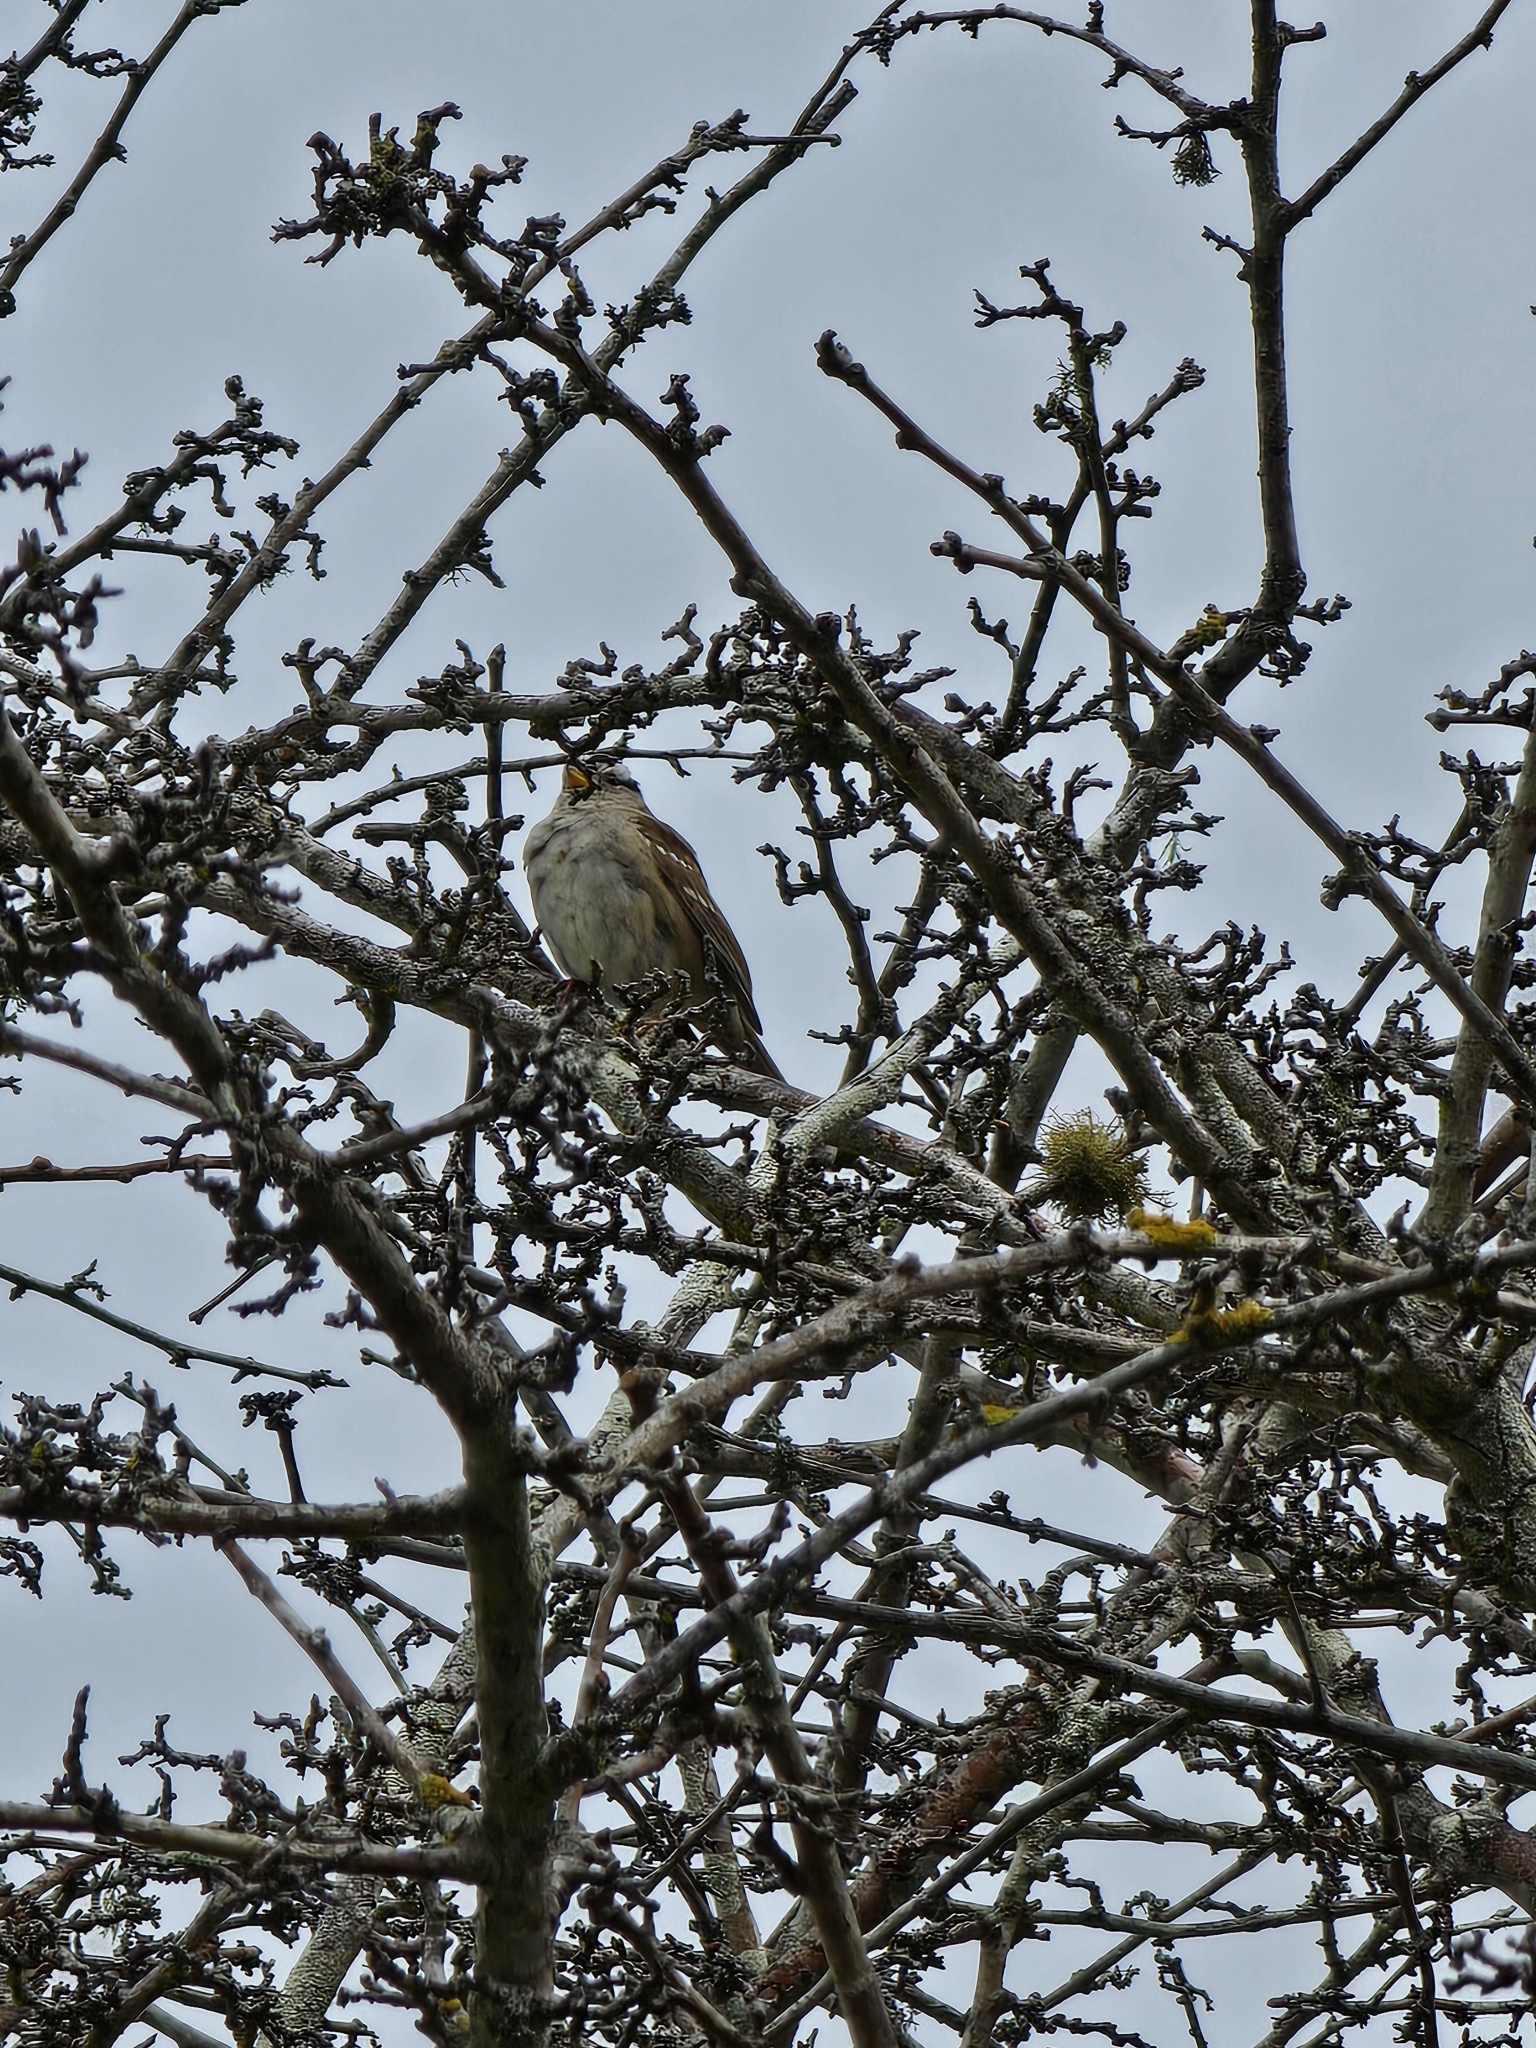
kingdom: Animalia
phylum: Chordata
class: Aves
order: Passeriformes
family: Passerellidae
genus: Zonotrichia
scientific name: Zonotrichia leucophrys
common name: White-crowned sparrow
